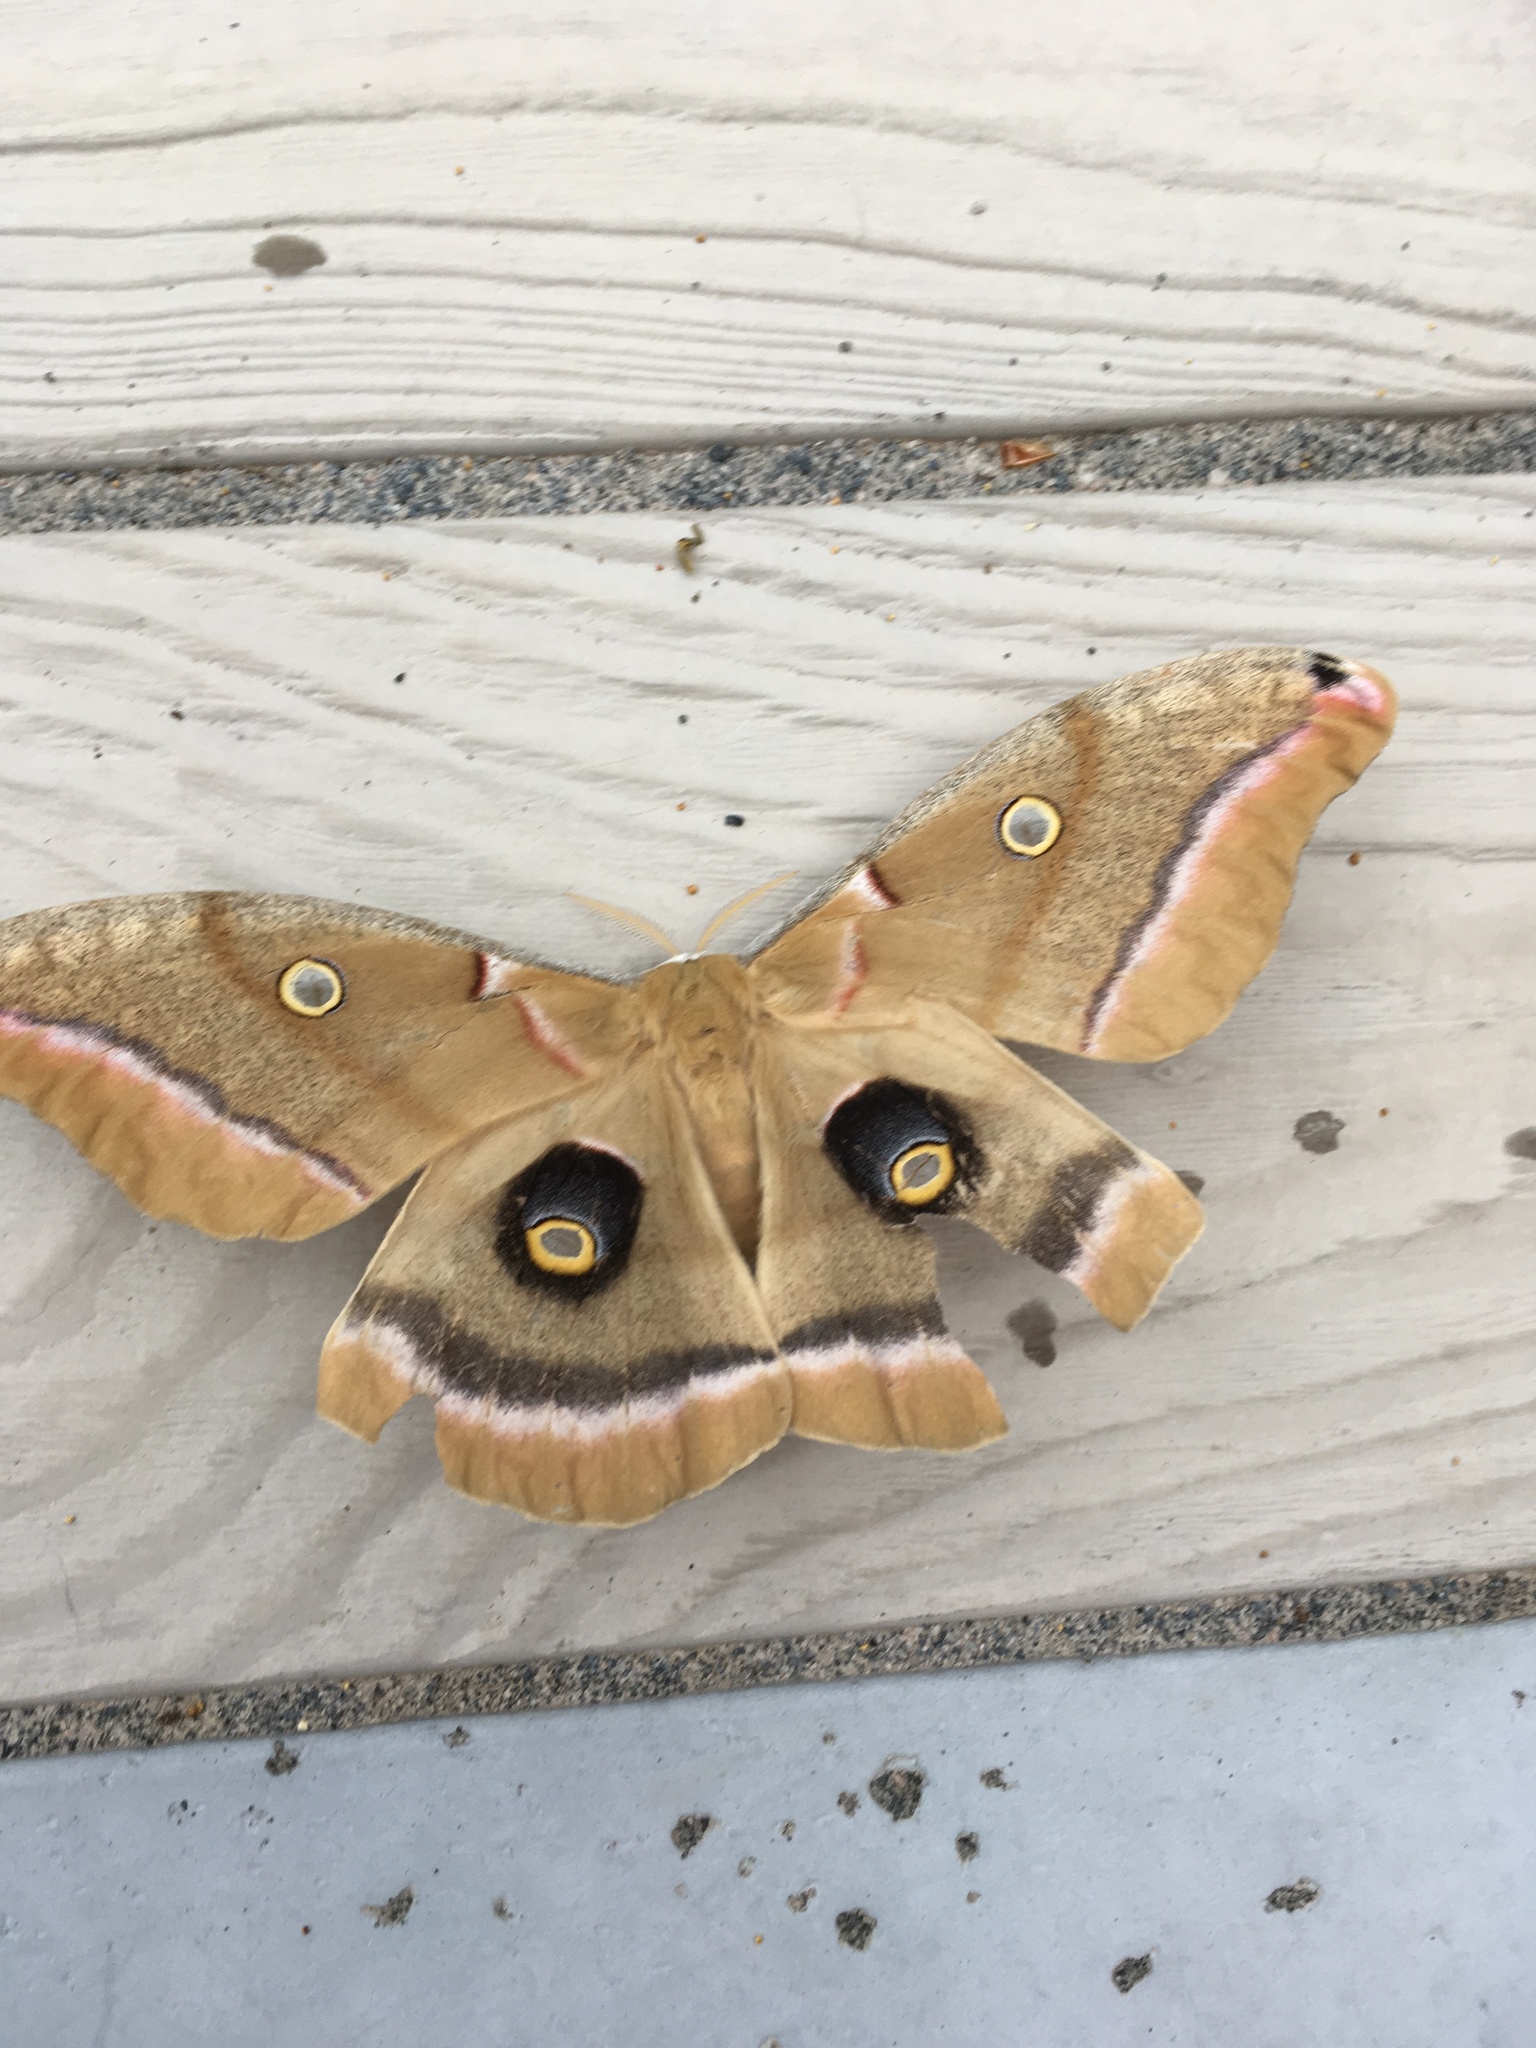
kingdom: Animalia
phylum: Arthropoda
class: Insecta
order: Lepidoptera
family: Saturniidae
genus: Antheraea
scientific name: Antheraea polyphemus
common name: Polyphemus moth
